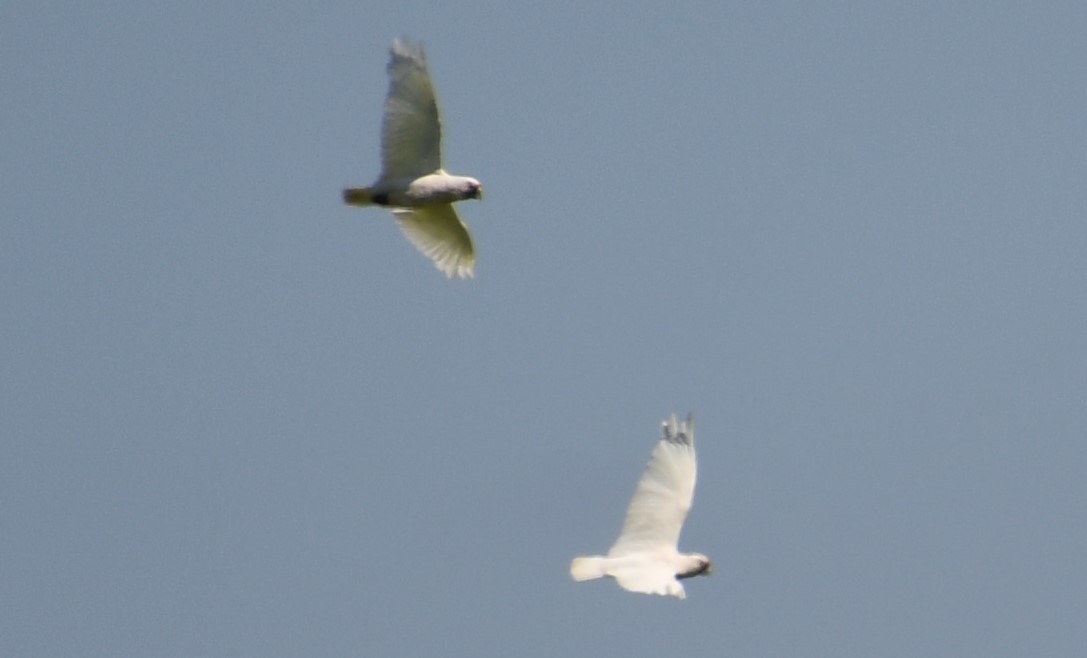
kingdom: Animalia
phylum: Chordata
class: Aves
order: Psittaciformes
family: Psittacidae
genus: Cacatua
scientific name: Cacatua tenuirostris
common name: Long-billed corella
